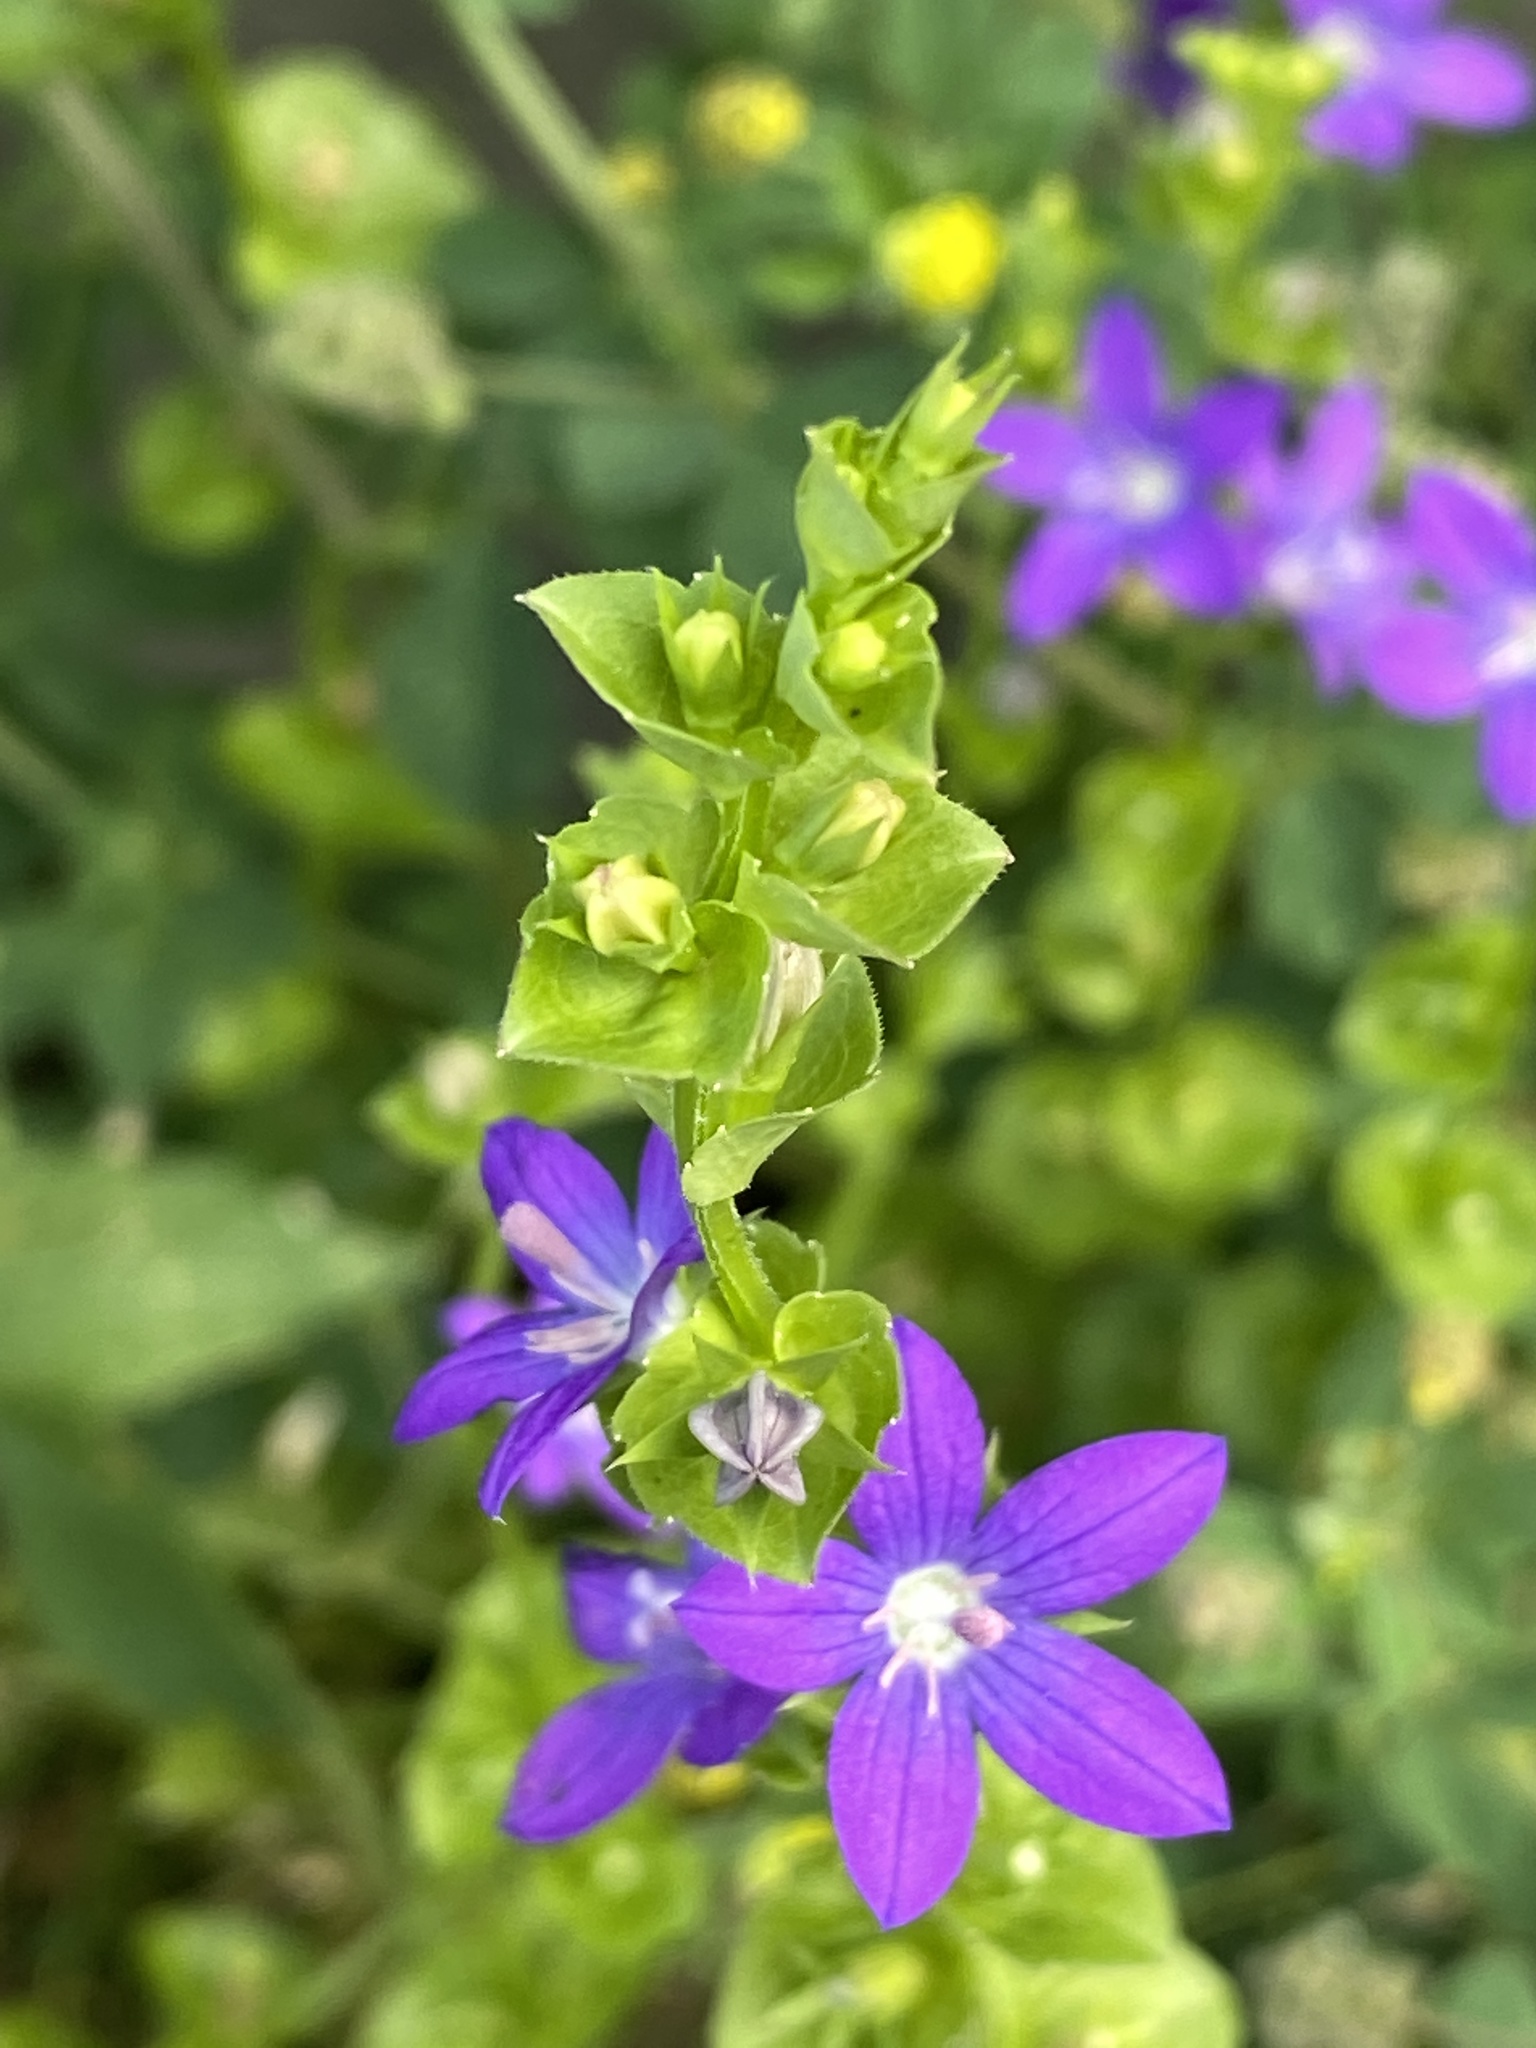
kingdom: Plantae
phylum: Tracheophyta
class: Magnoliopsida
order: Asterales
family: Campanulaceae
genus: Triodanis
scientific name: Triodanis perfoliata
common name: Clasping venus' looking-glass
